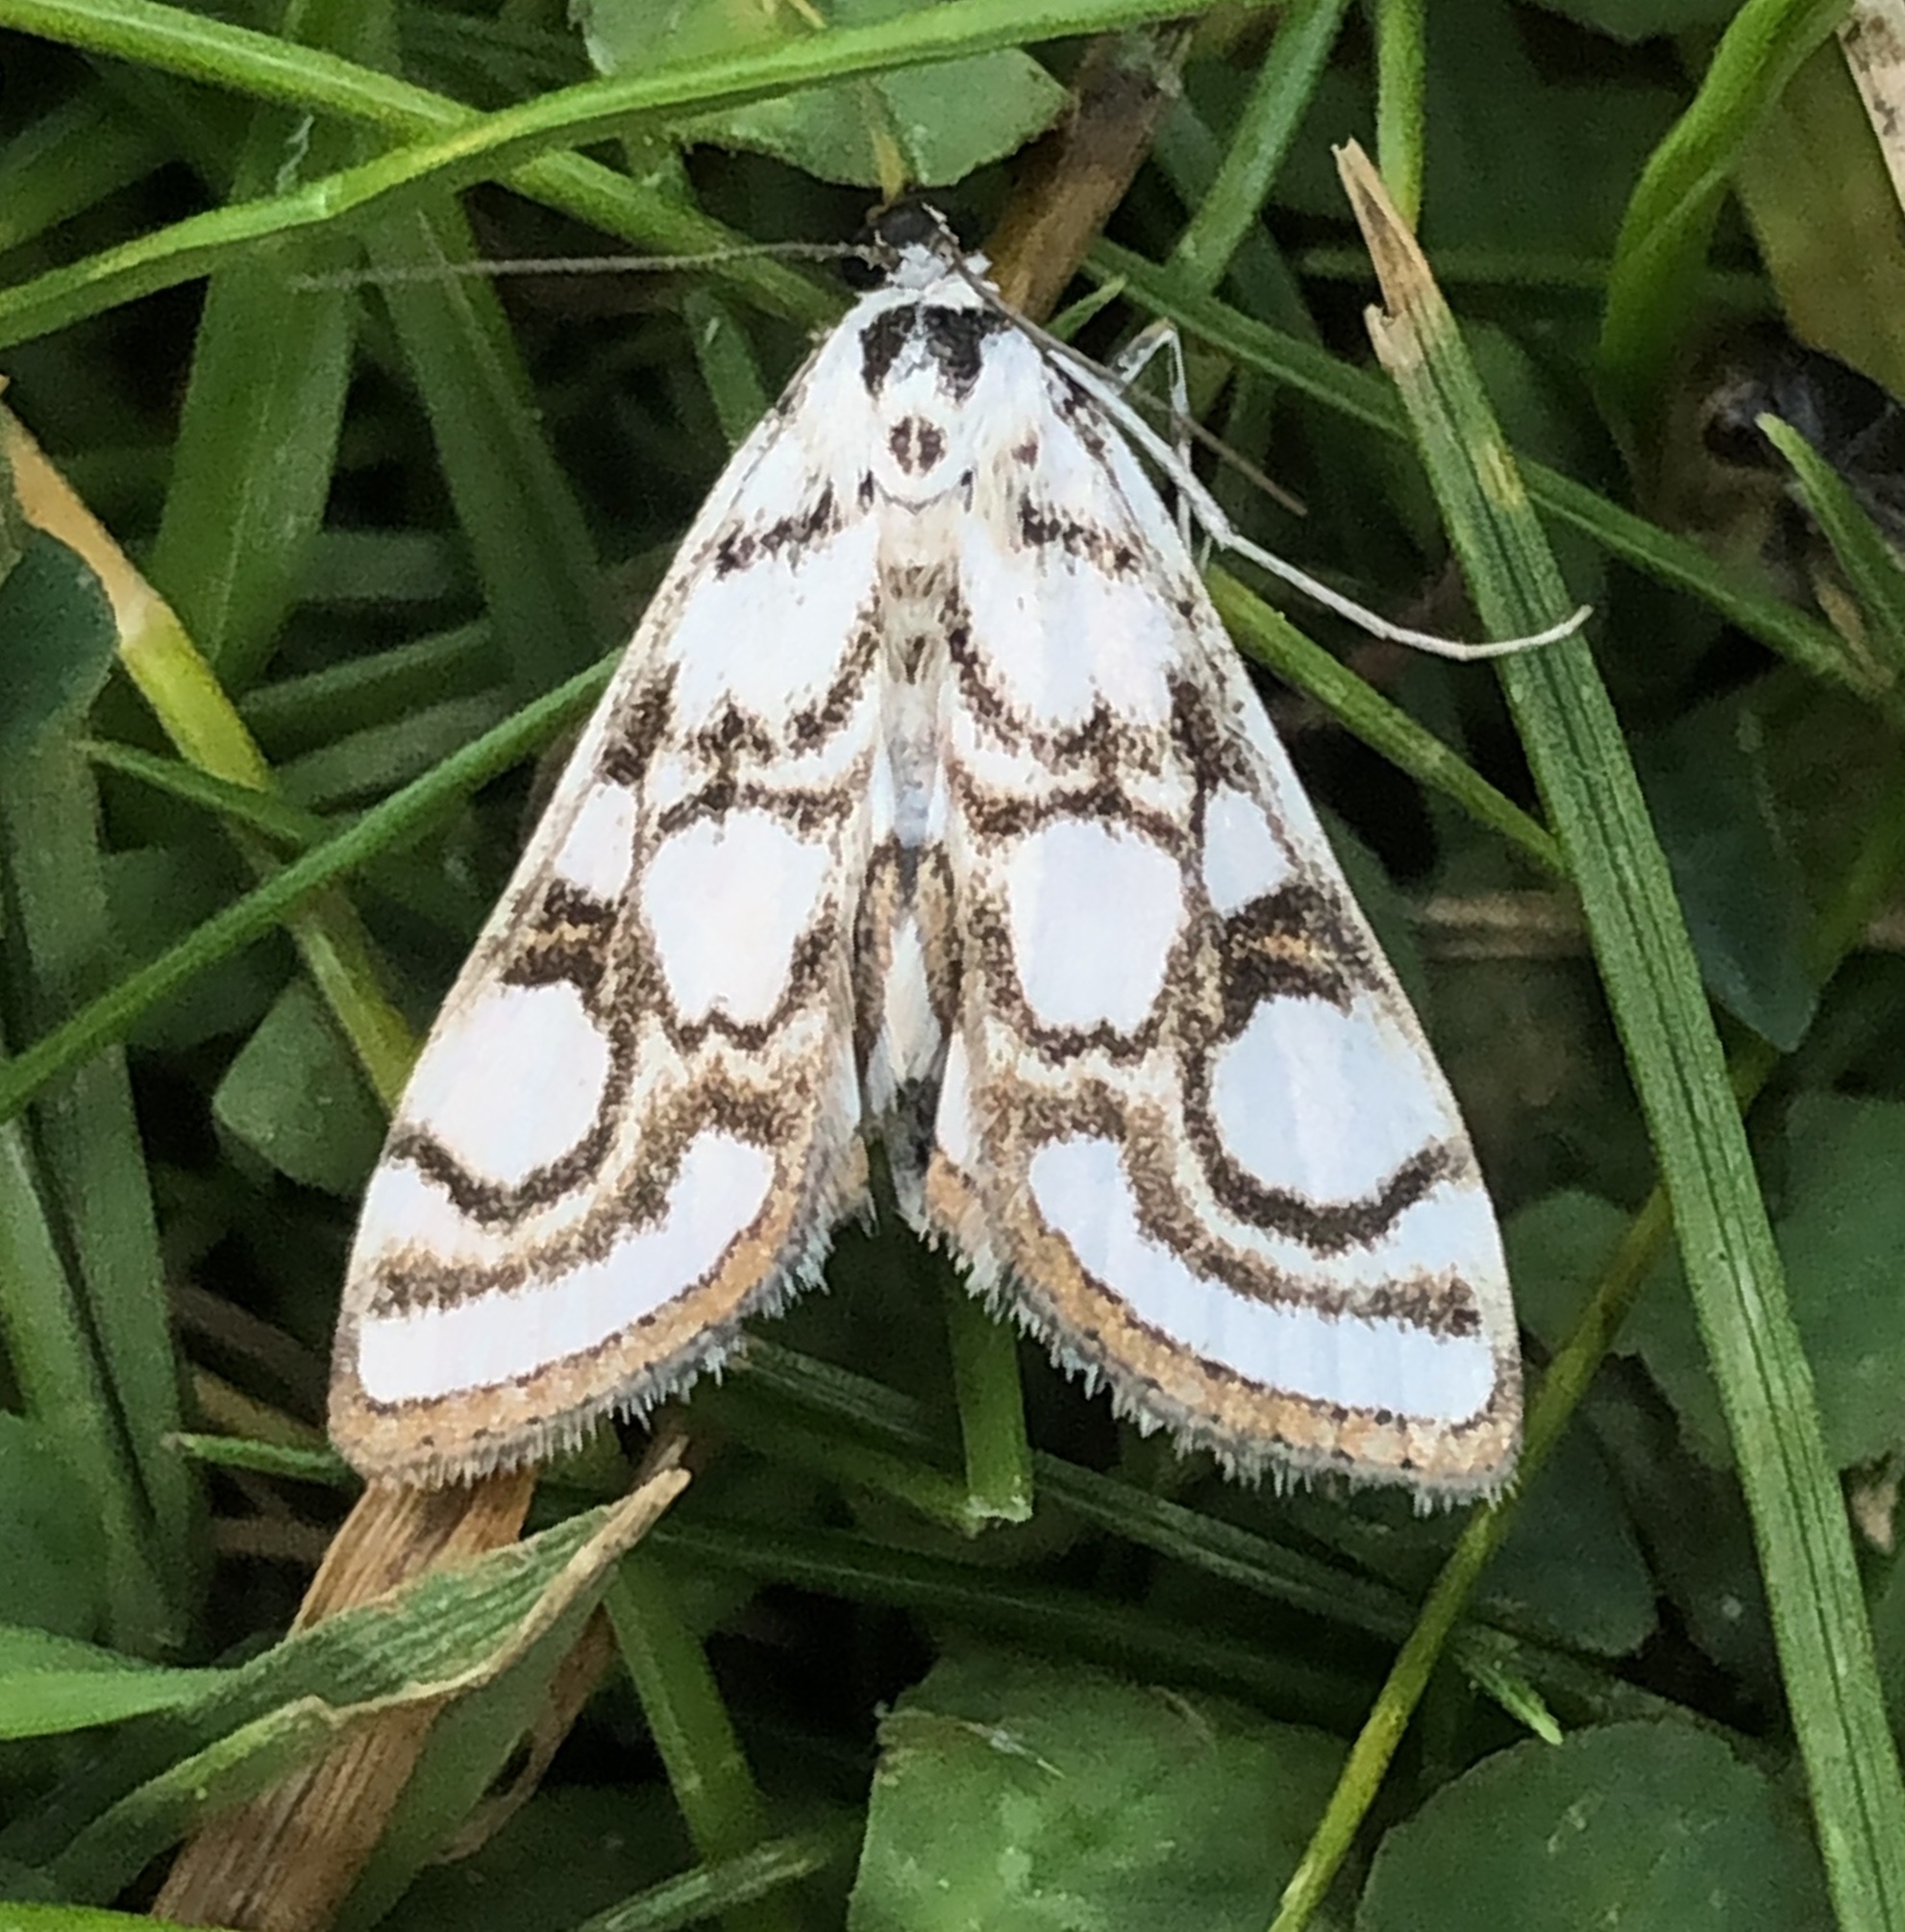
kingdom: Animalia
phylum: Arthropoda
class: Insecta
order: Lepidoptera
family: Crambidae
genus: Nymphula
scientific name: Nymphula nitidulata
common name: Beautiful china mark
